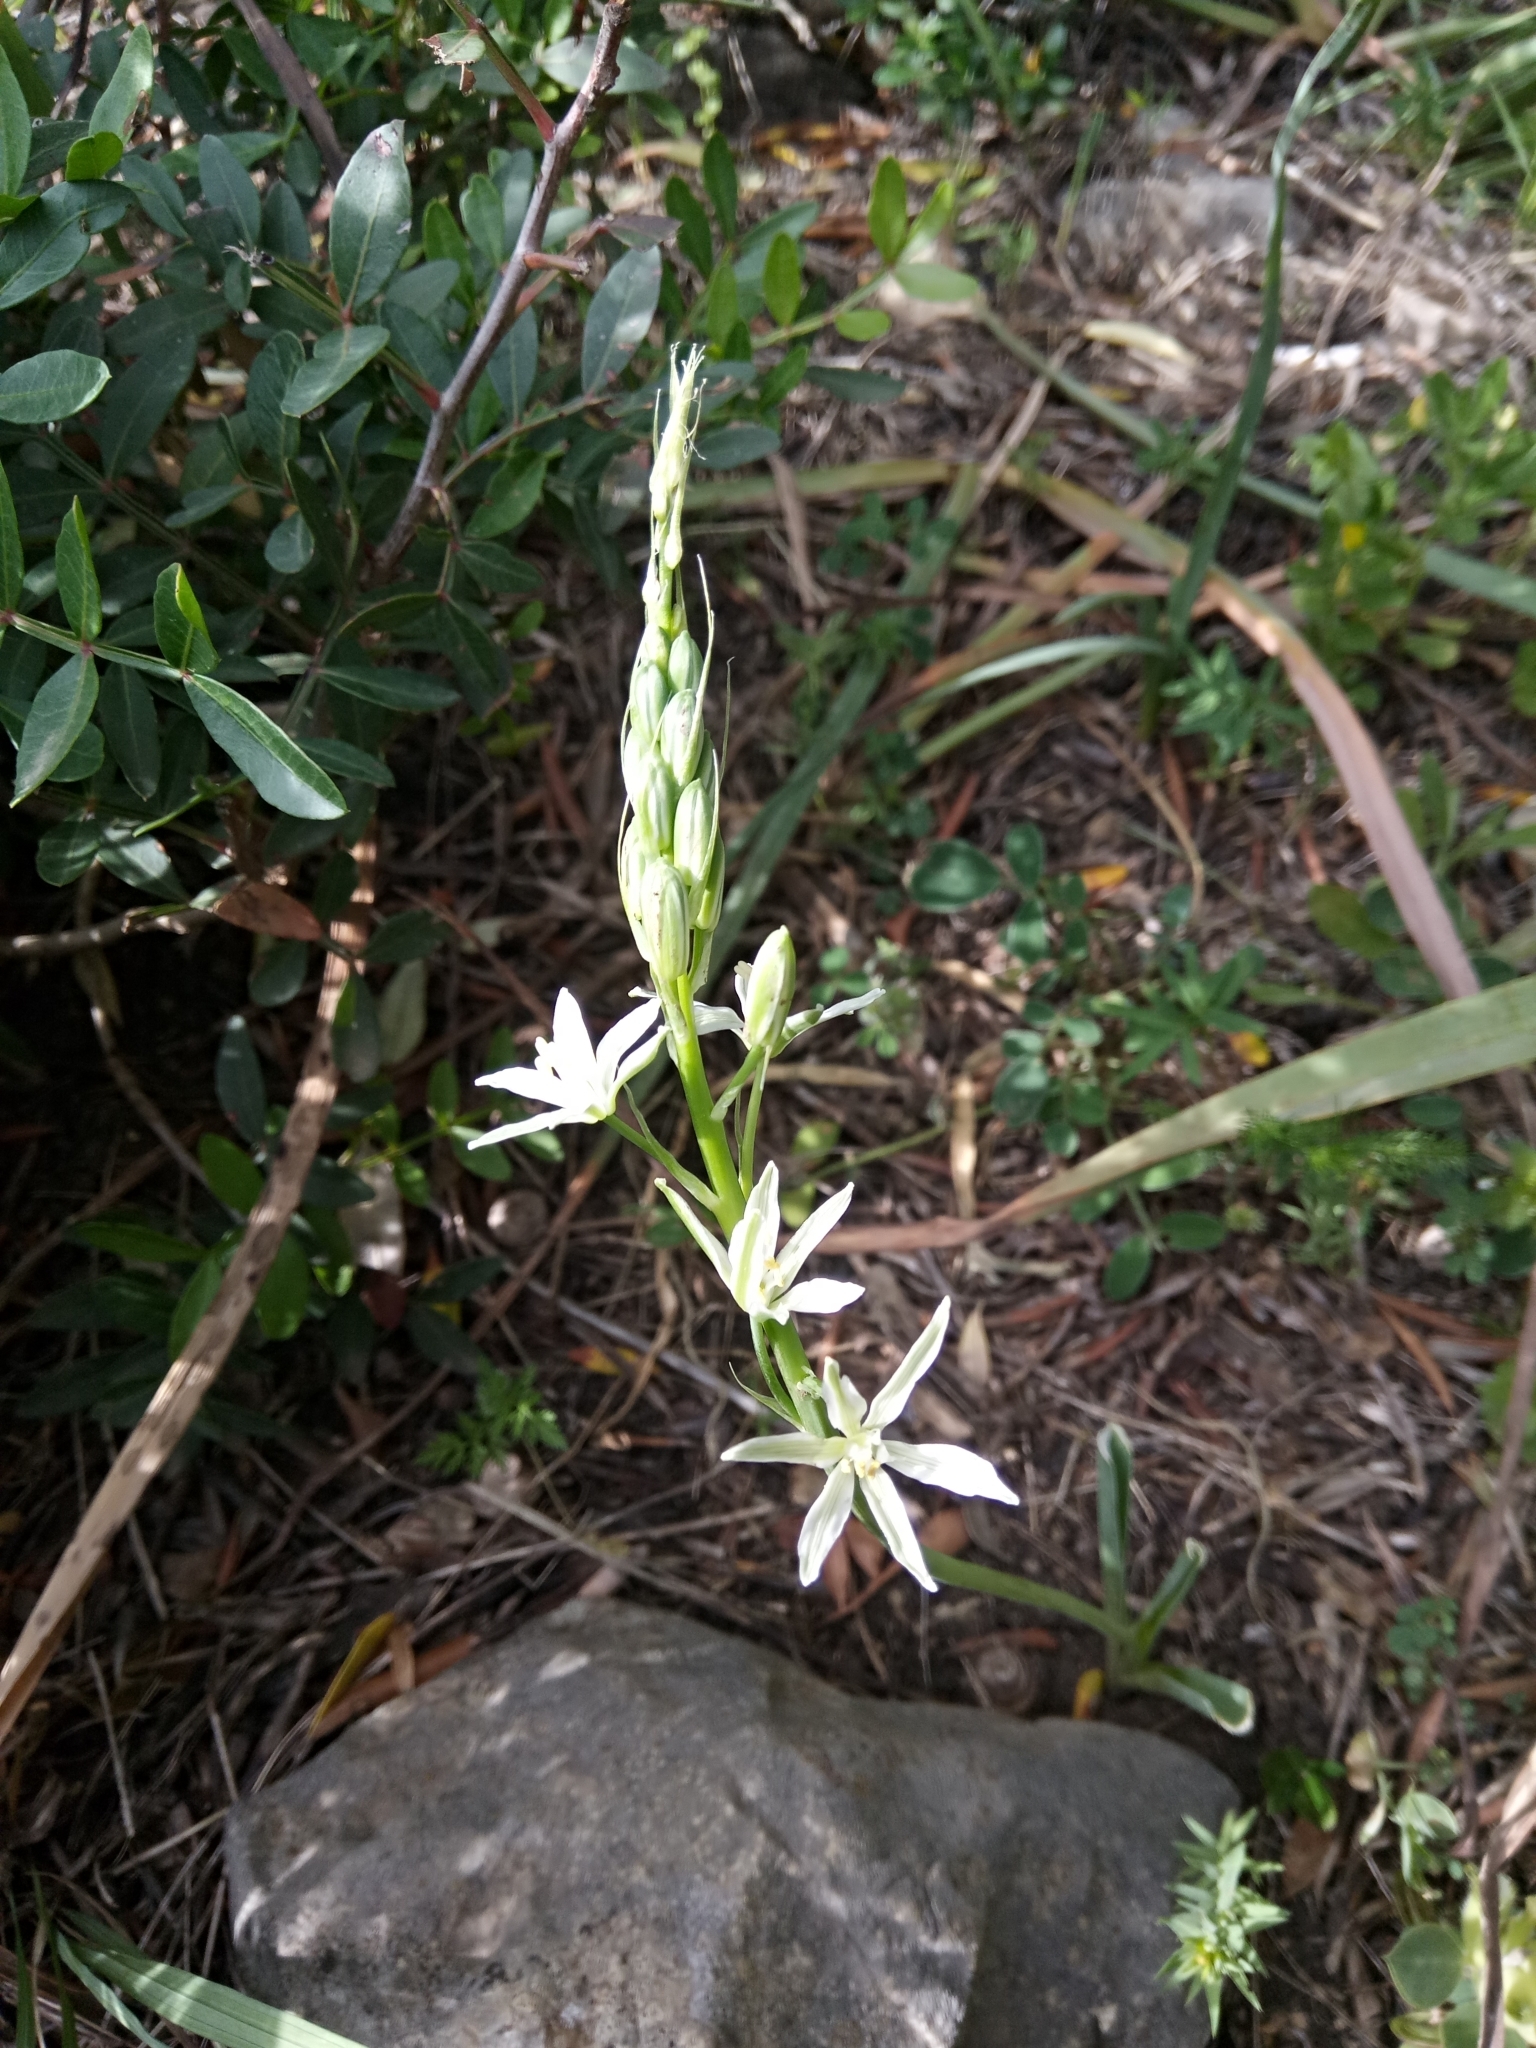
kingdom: Plantae
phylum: Tracheophyta
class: Liliopsida
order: Asparagales
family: Asparagaceae
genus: Ornithogalum
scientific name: Ornithogalum narbonense
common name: Bath-asparagus
